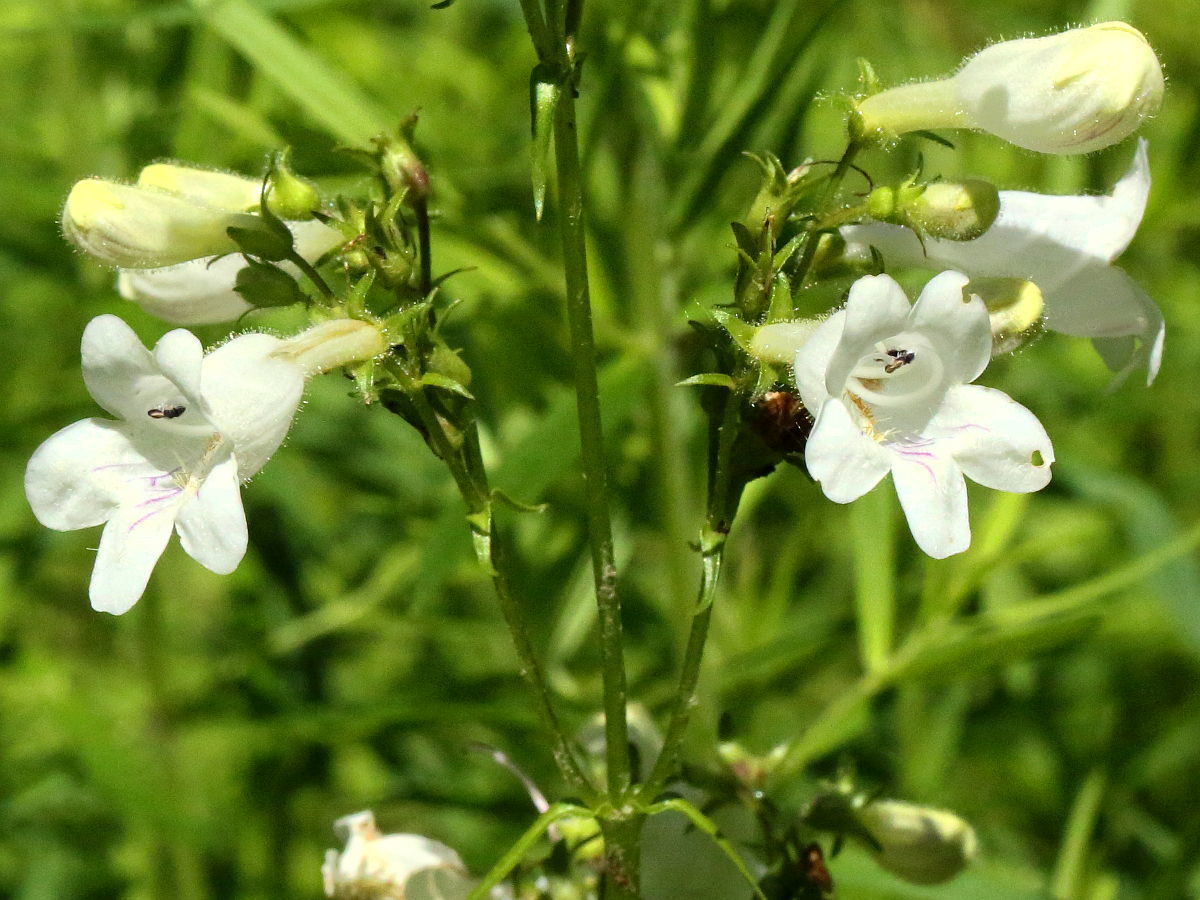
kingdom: Plantae
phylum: Tracheophyta
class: Magnoliopsida
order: Lamiales
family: Plantaginaceae
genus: Penstemon
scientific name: Penstemon digitalis
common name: Foxglove beardtongue
